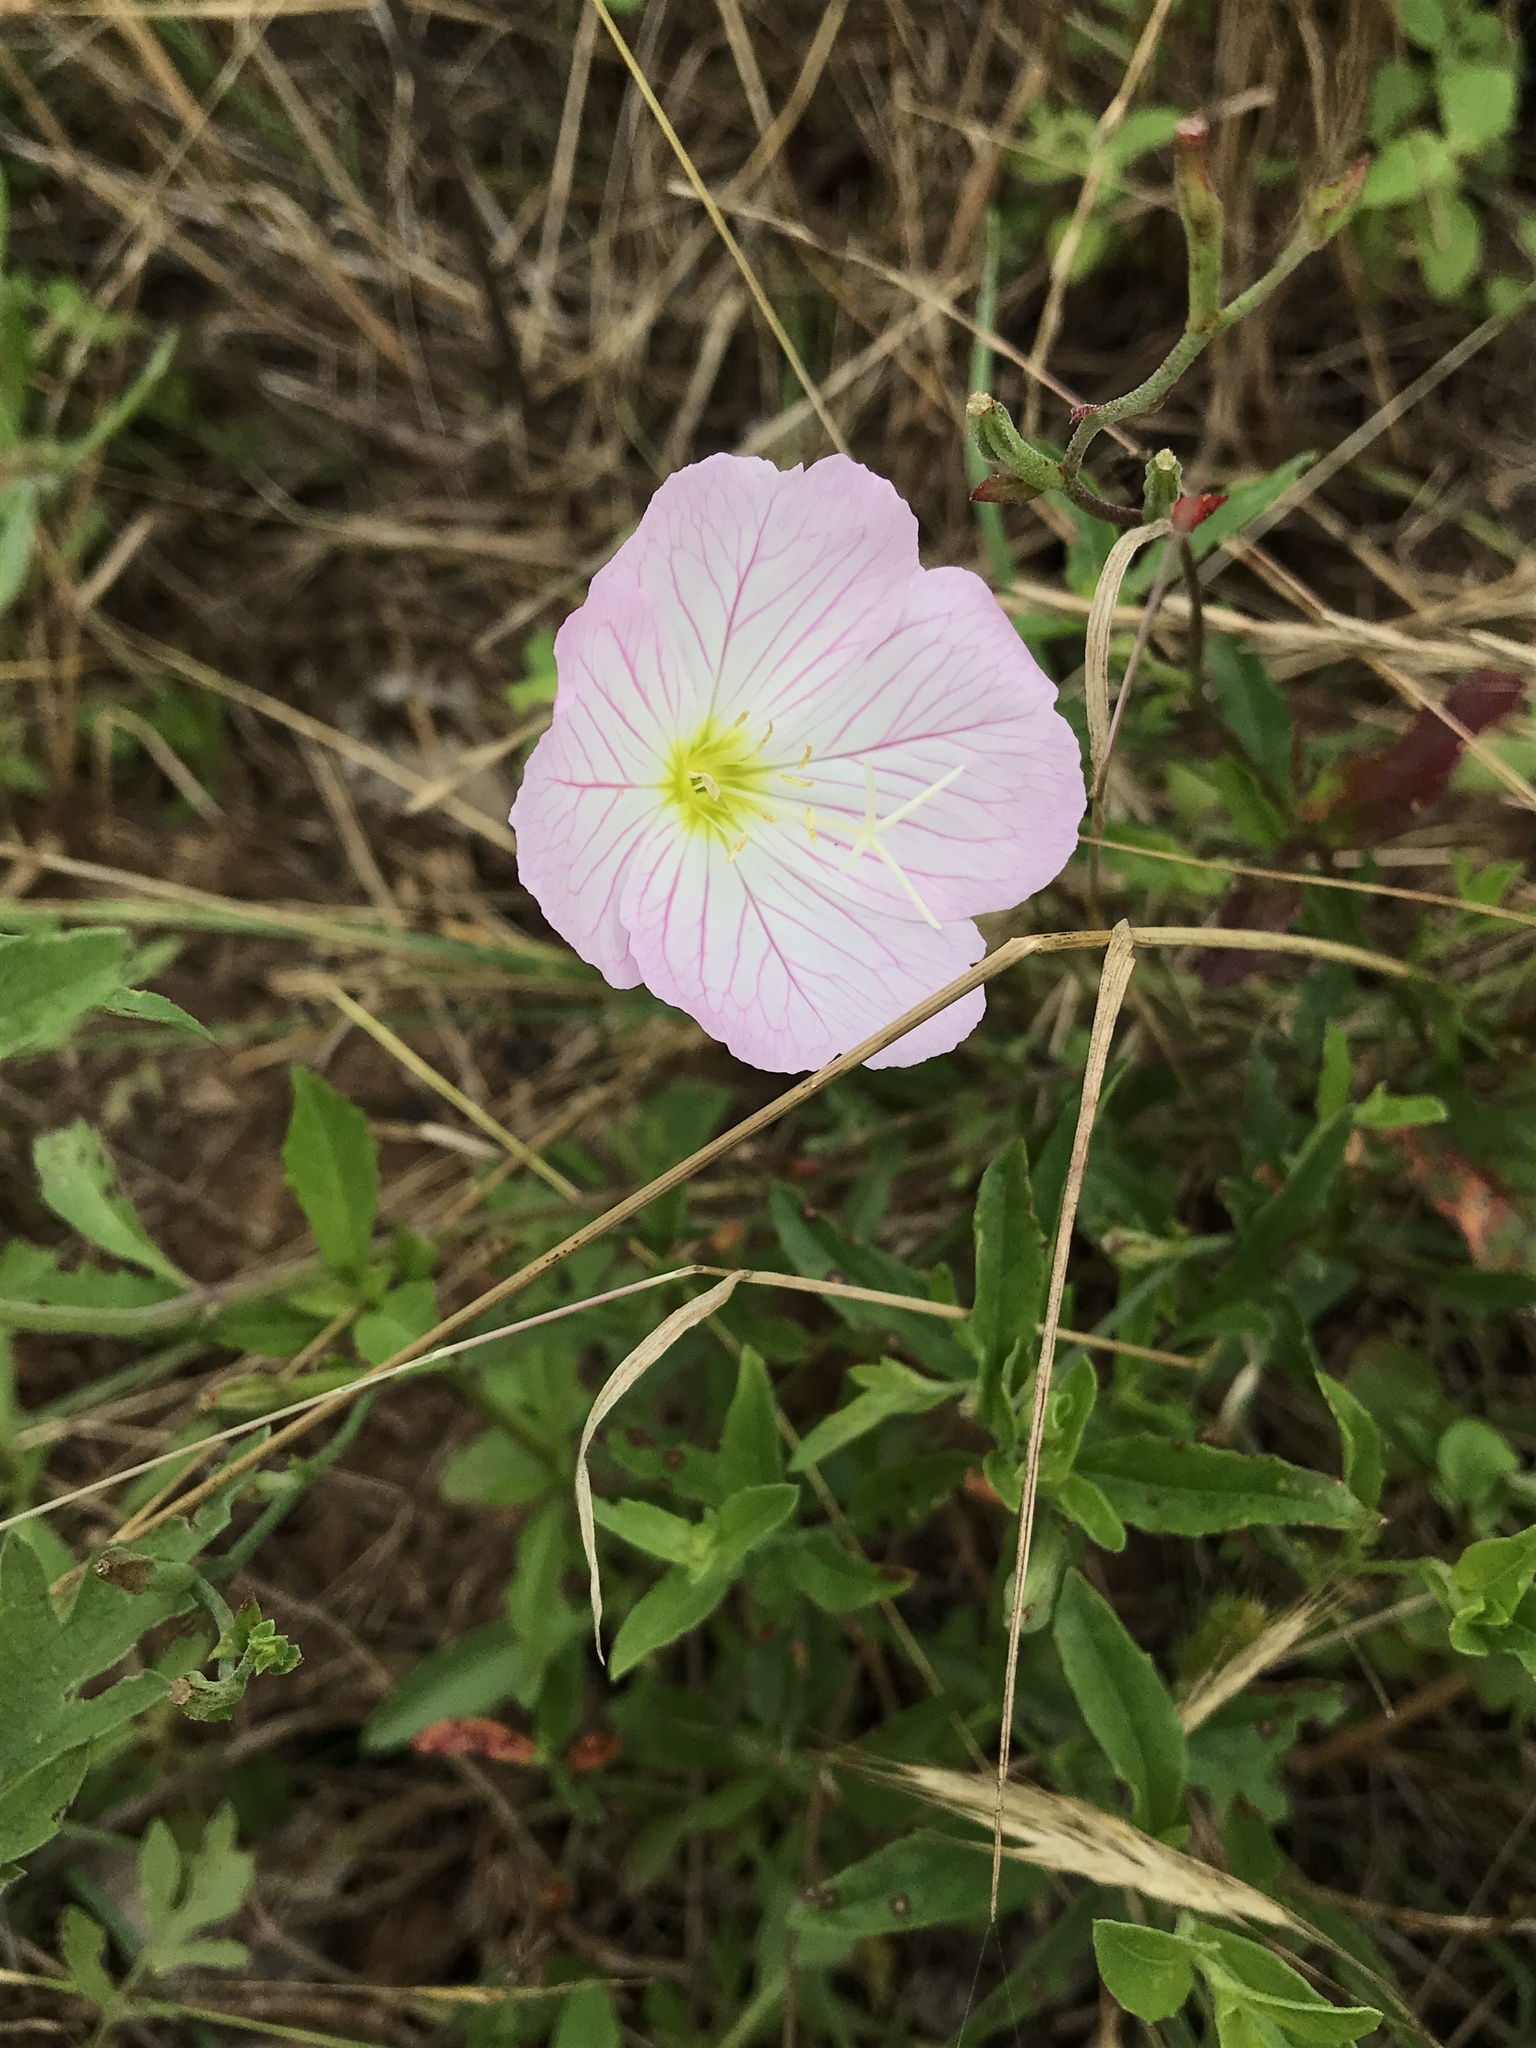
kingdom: Plantae
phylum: Tracheophyta
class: Magnoliopsida
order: Myrtales
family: Onagraceae
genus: Oenothera
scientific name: Oenothera speciosa
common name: White evening-primrose
